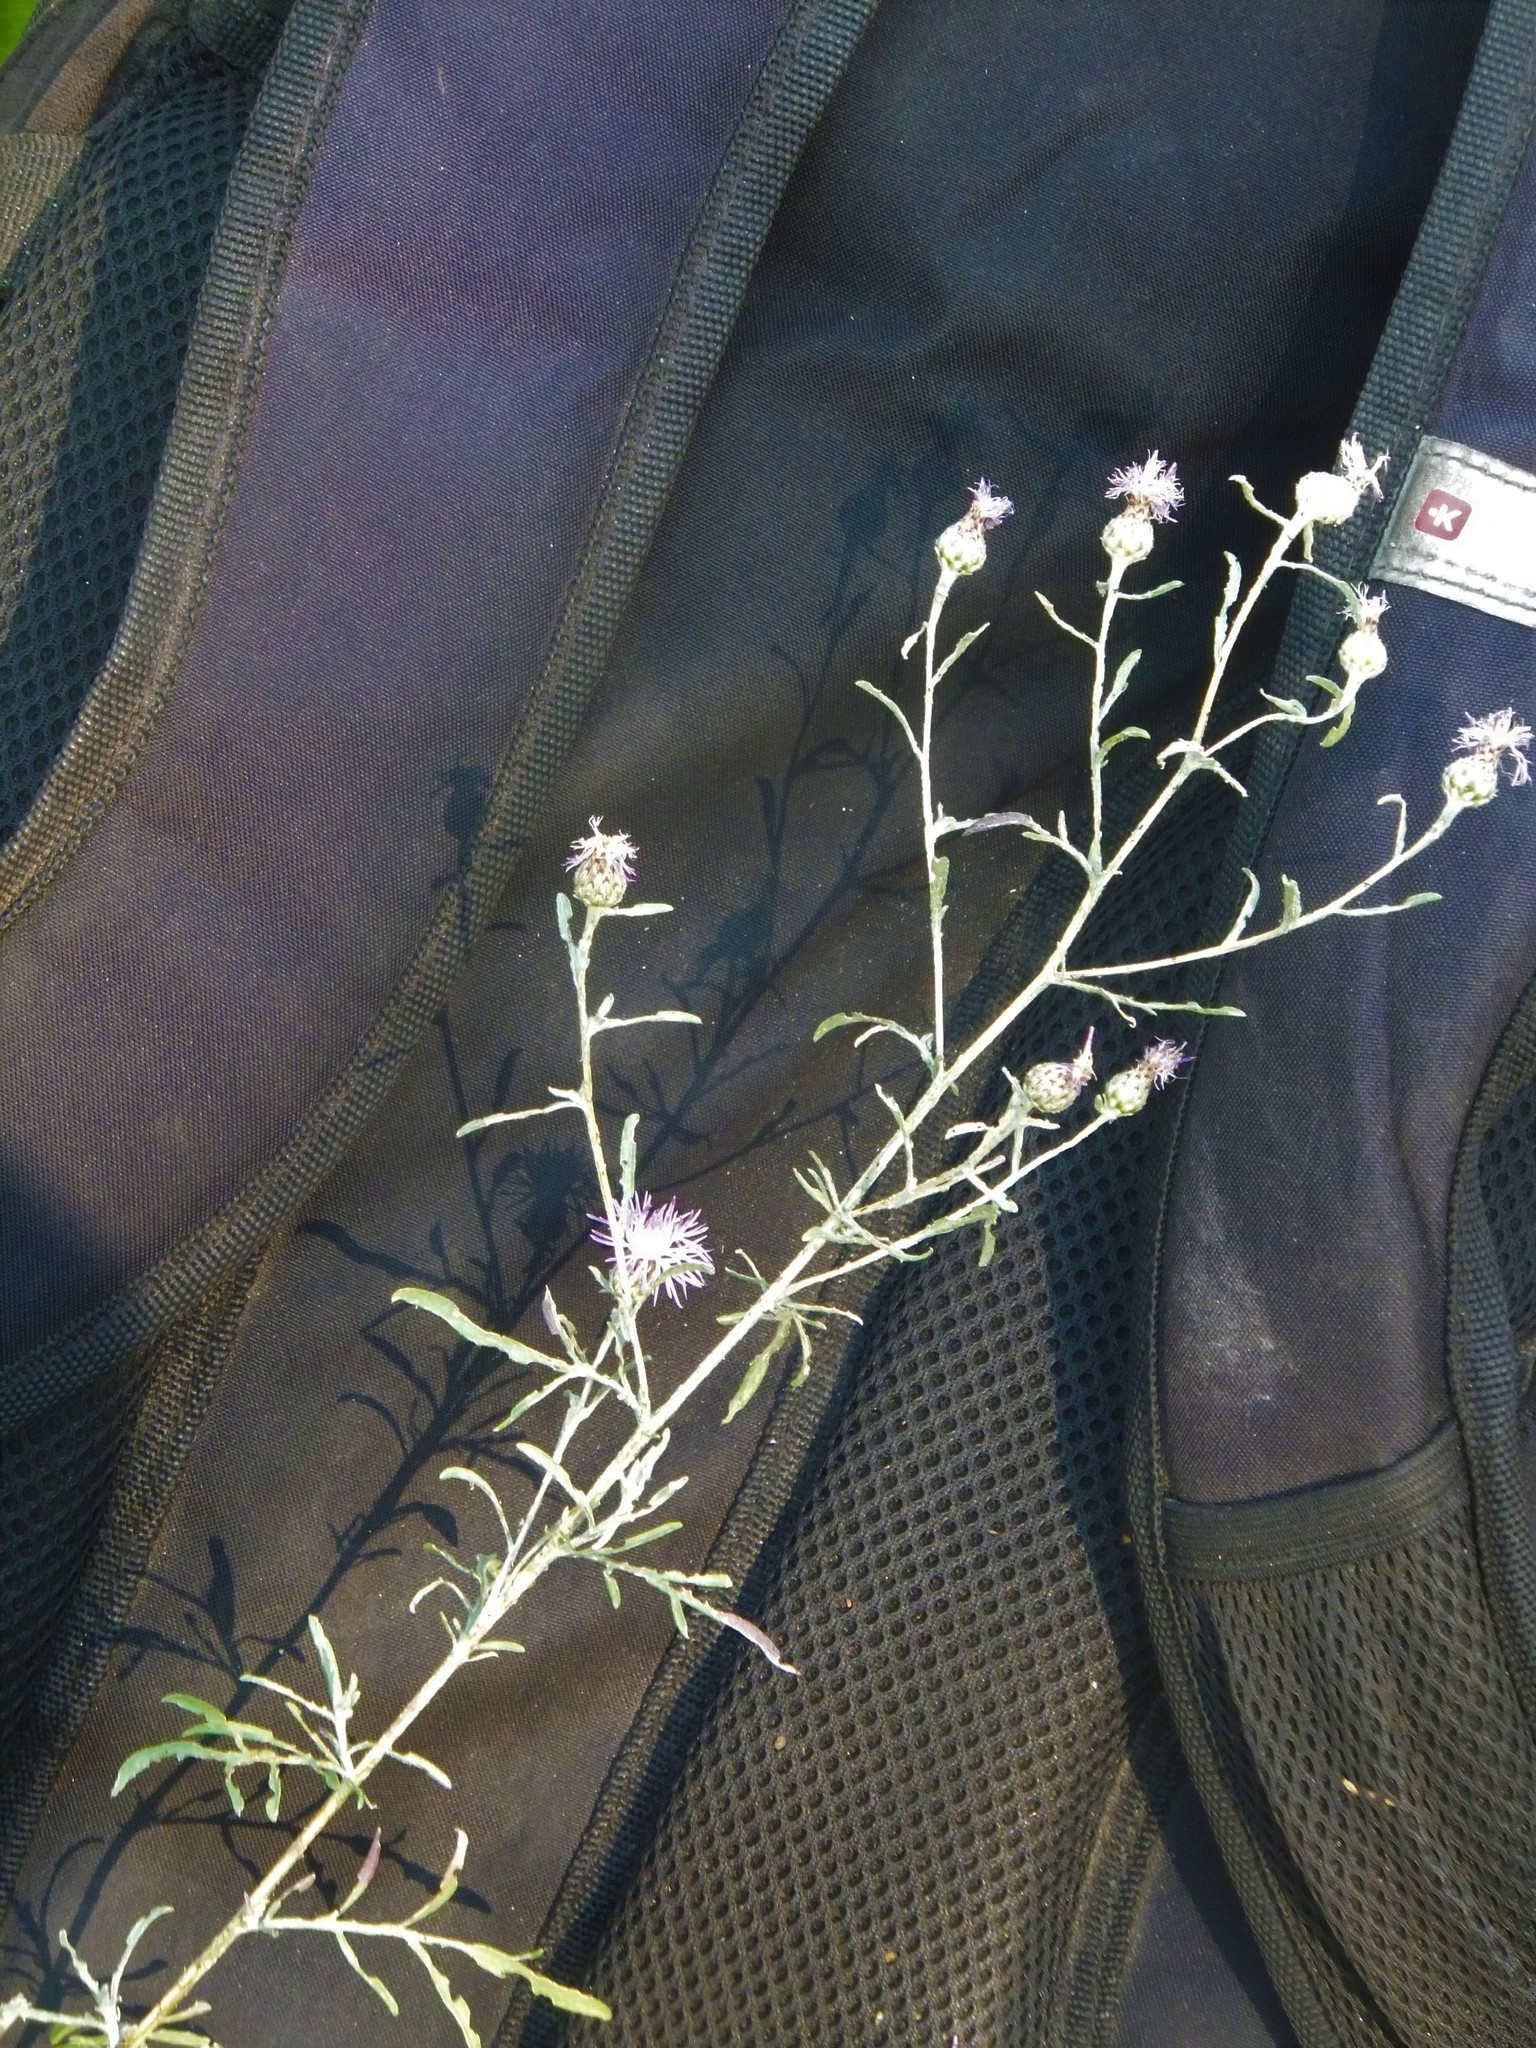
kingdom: Plantae
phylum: Tracheophyta
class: Magnoliopsida
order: Asterales
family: Asteraceae
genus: Centaurea
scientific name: Centaurea stoebe
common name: Spotted knapweed
